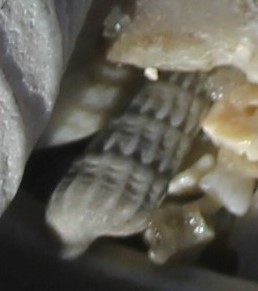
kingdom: Animalia
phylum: Mollusca
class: Gastropoda
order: Neogastropoda
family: Terebridae
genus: Neoterebra
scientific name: Neoterebra dislocata
